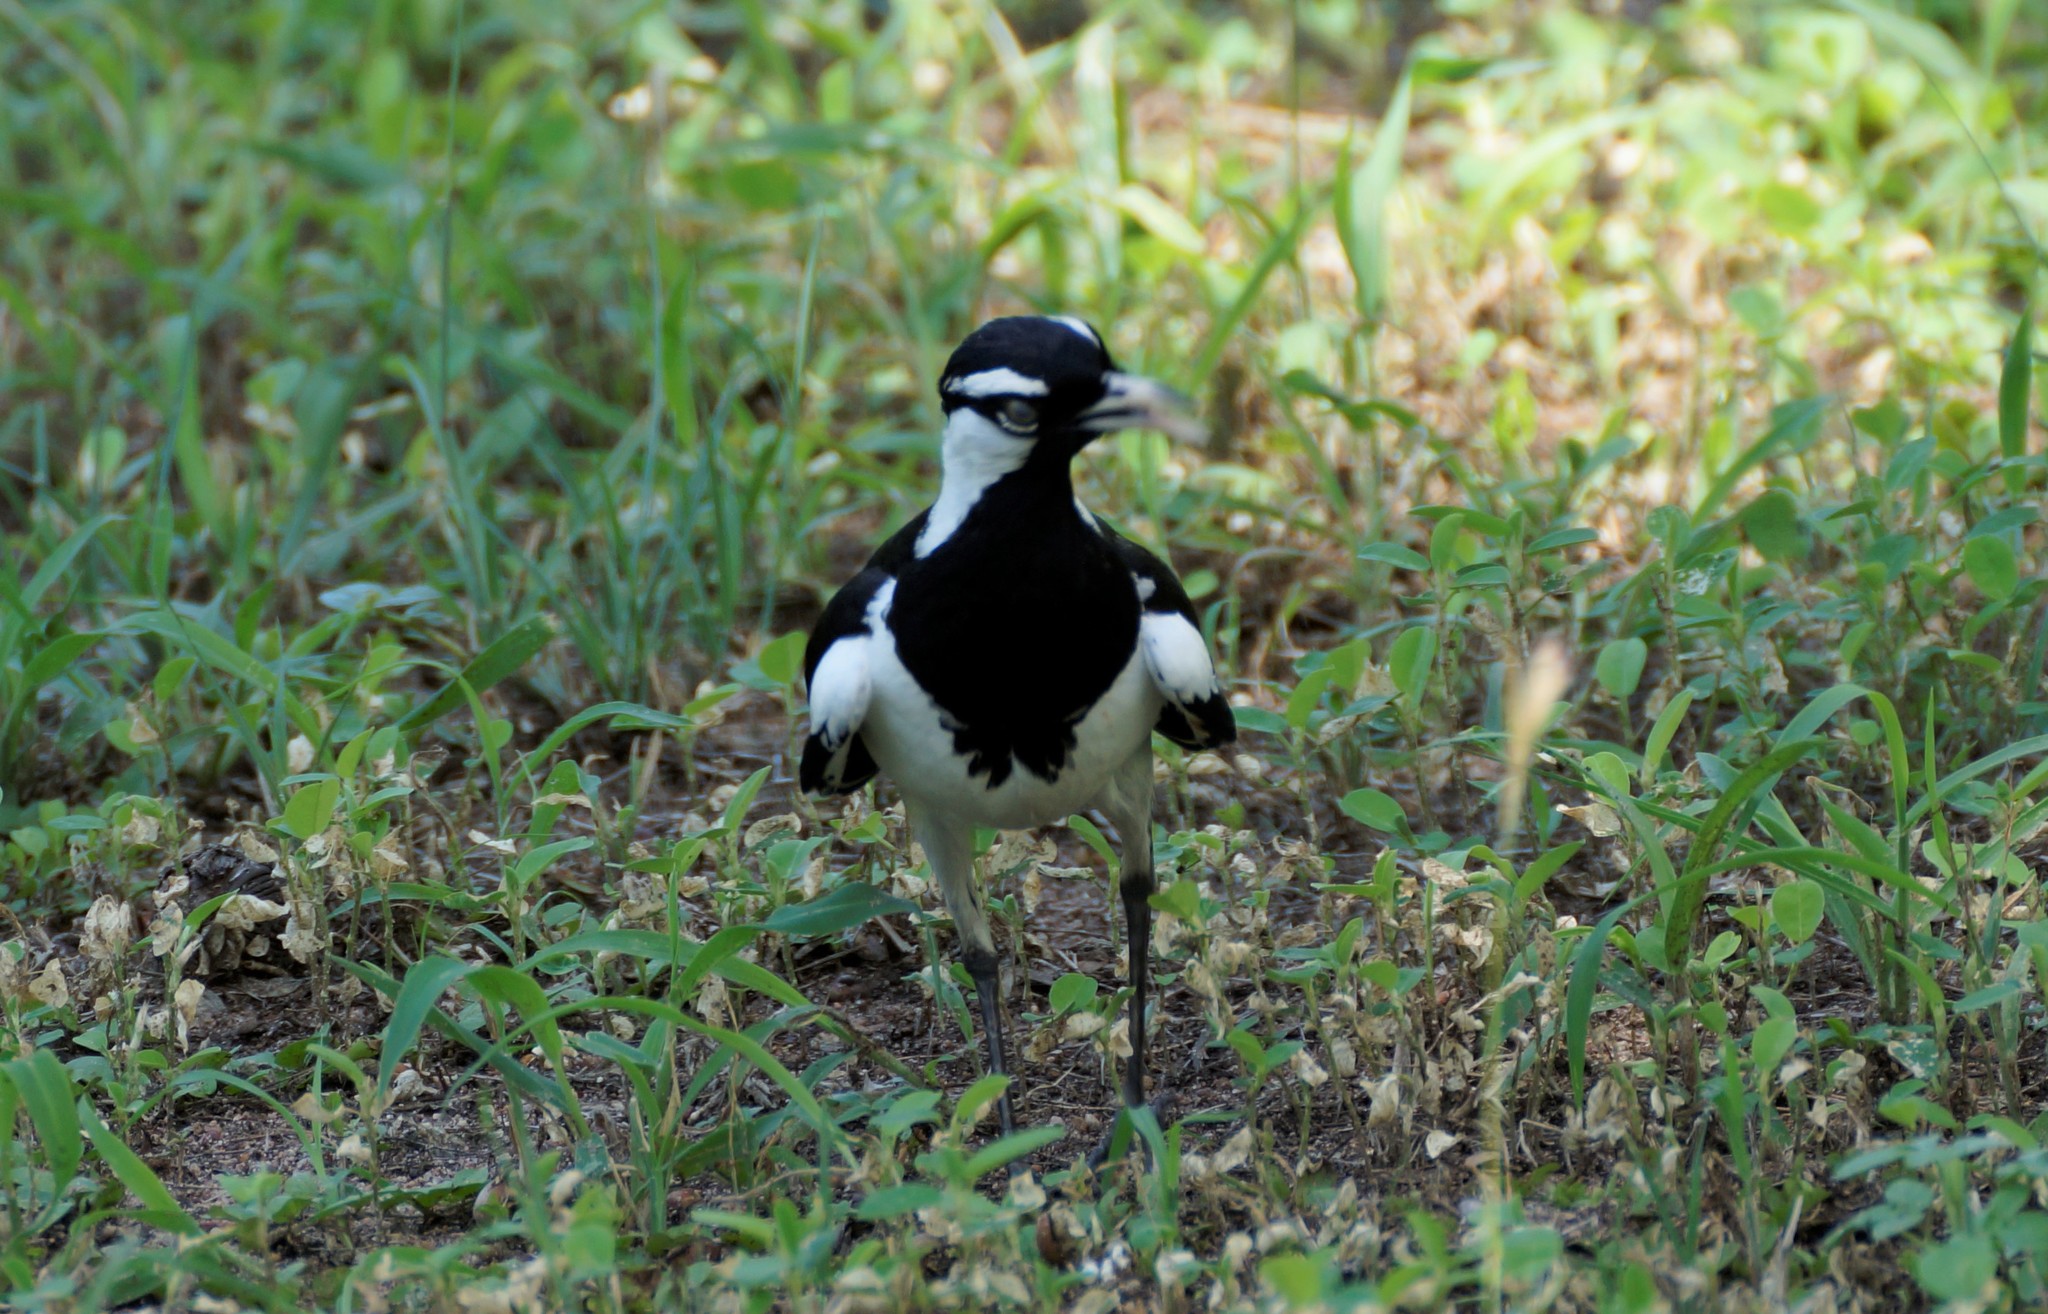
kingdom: Animalia
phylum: Chordata
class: Aves
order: Passeriformes
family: Monarchidae
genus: Grallina
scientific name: Grallina cyanoleuca
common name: Magpie-lark
